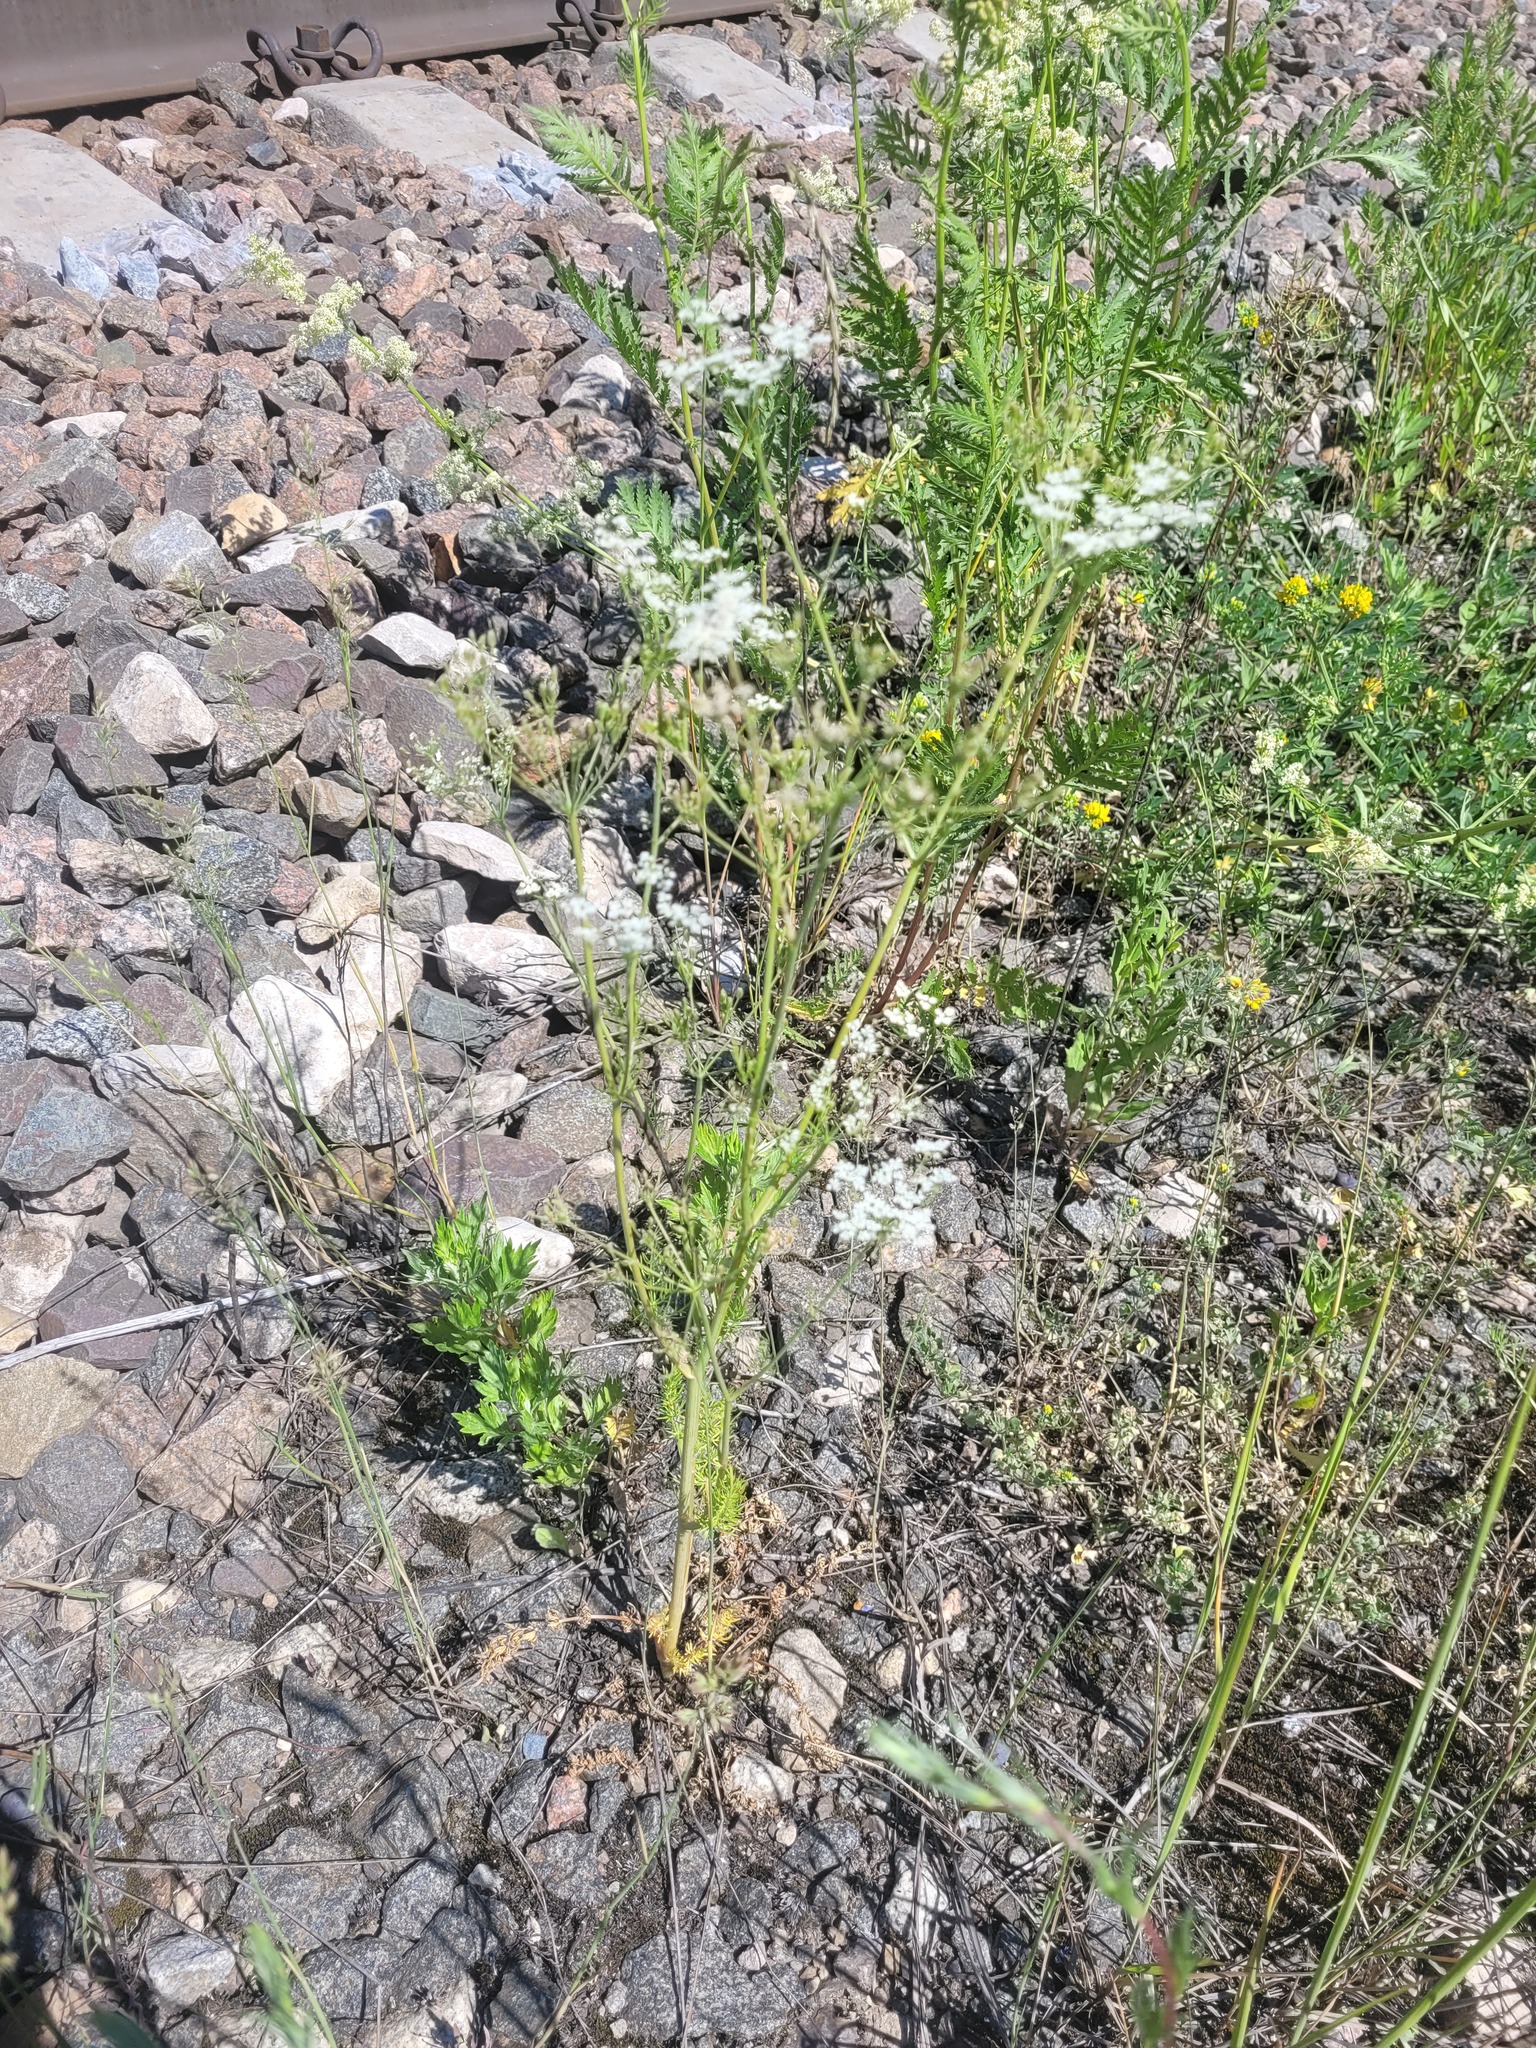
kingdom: Plantae
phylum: Tracheophyta
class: Magnoliopsida
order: Apiales
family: Apiaceae
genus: Carum
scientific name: Carum carvi
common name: Caraway
